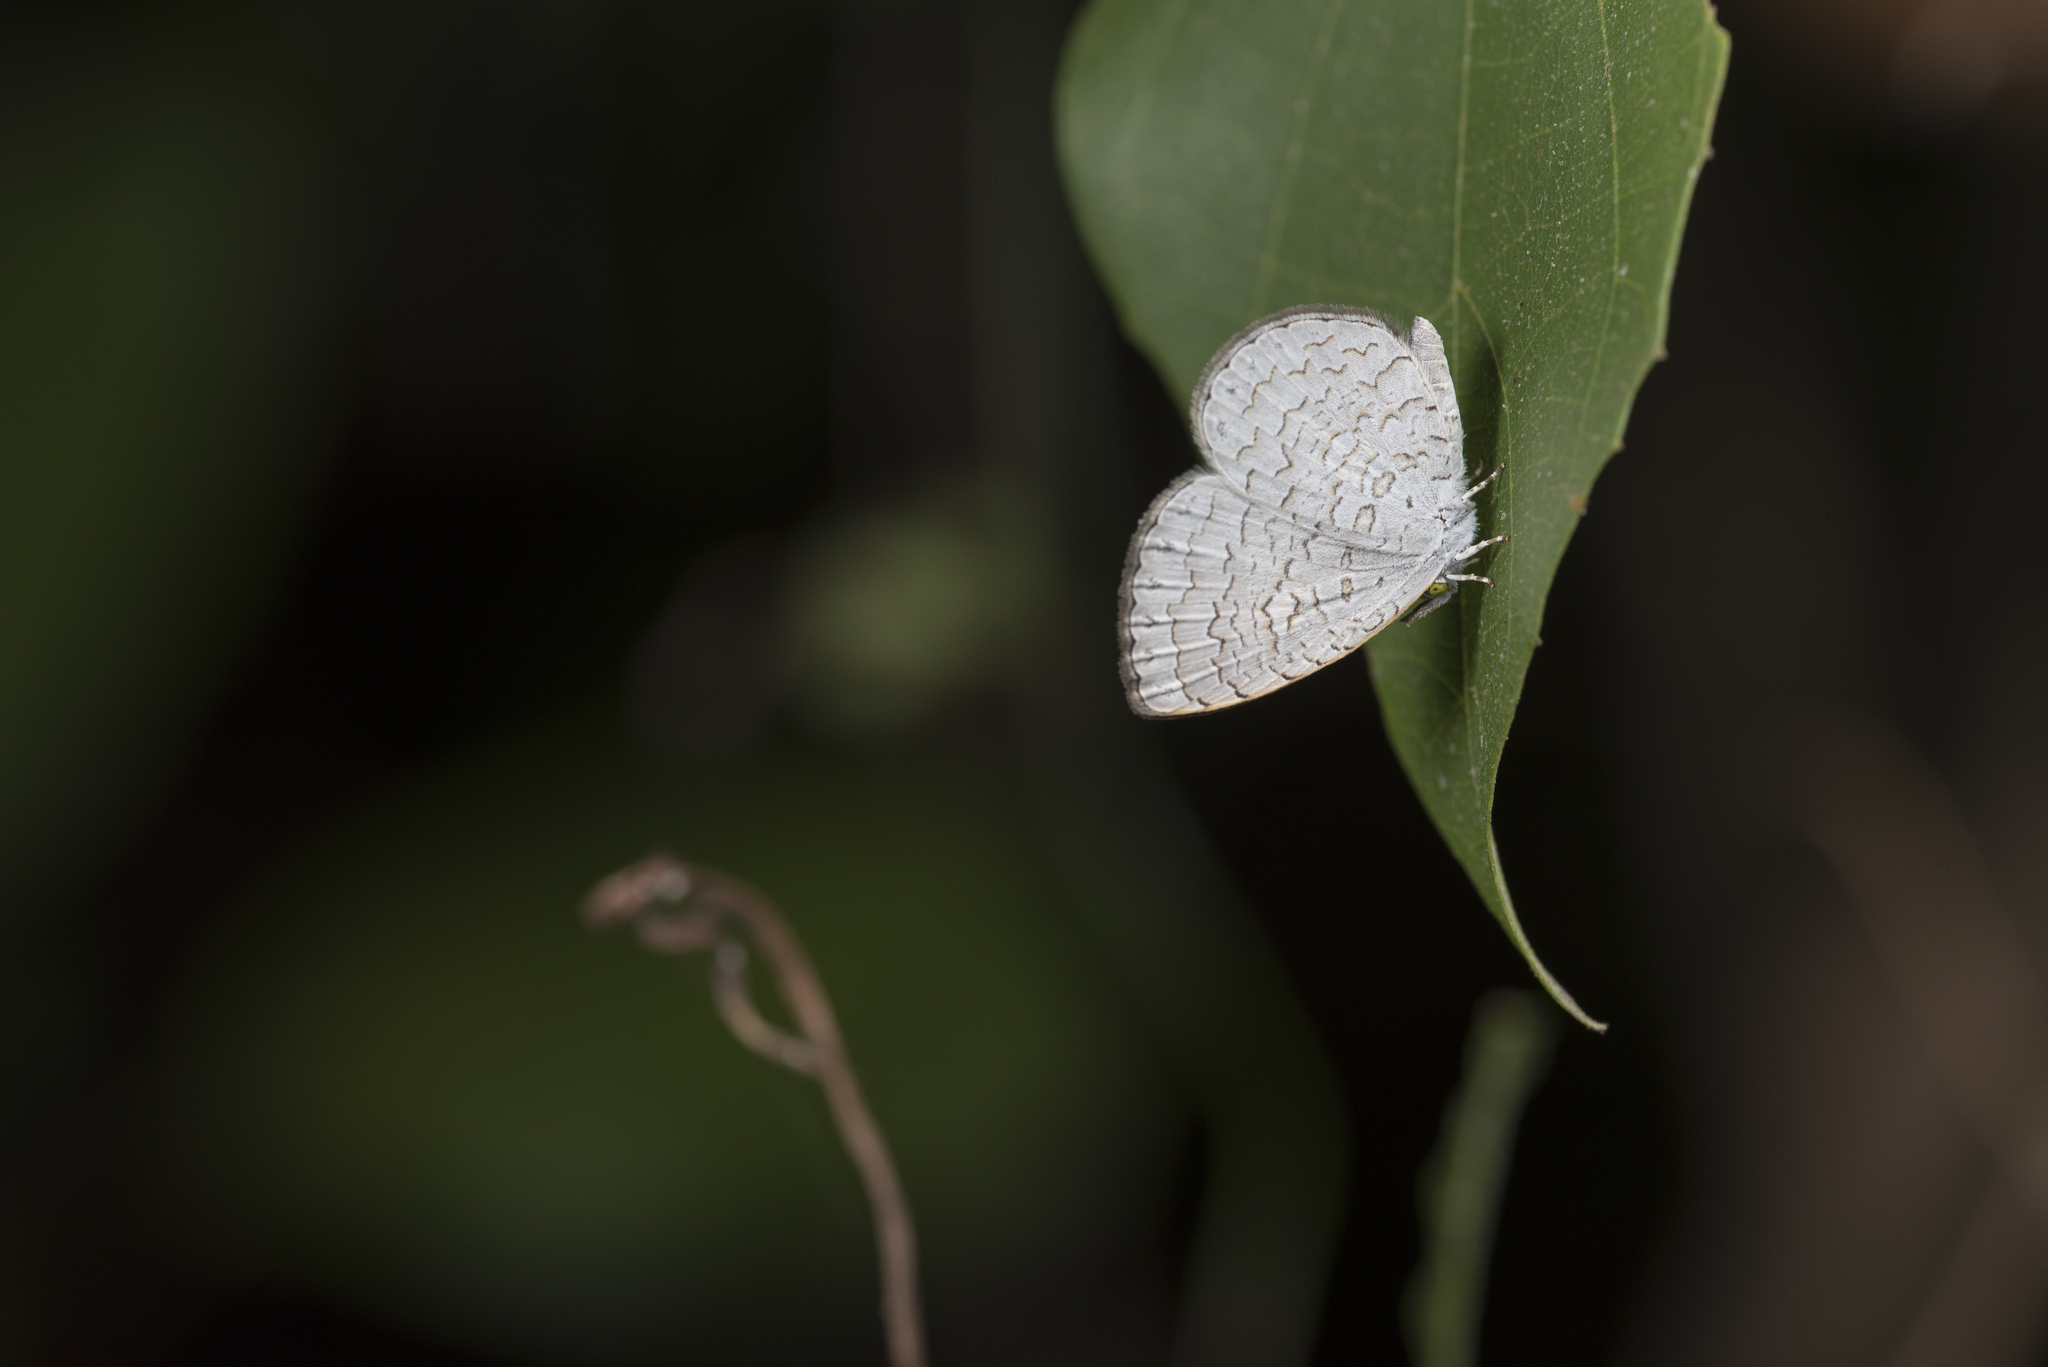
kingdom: Animalia
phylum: Arthropoda
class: Insecta
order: Lepidoptera
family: Lycaenidae
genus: Lucia
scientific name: Lucia dilama
